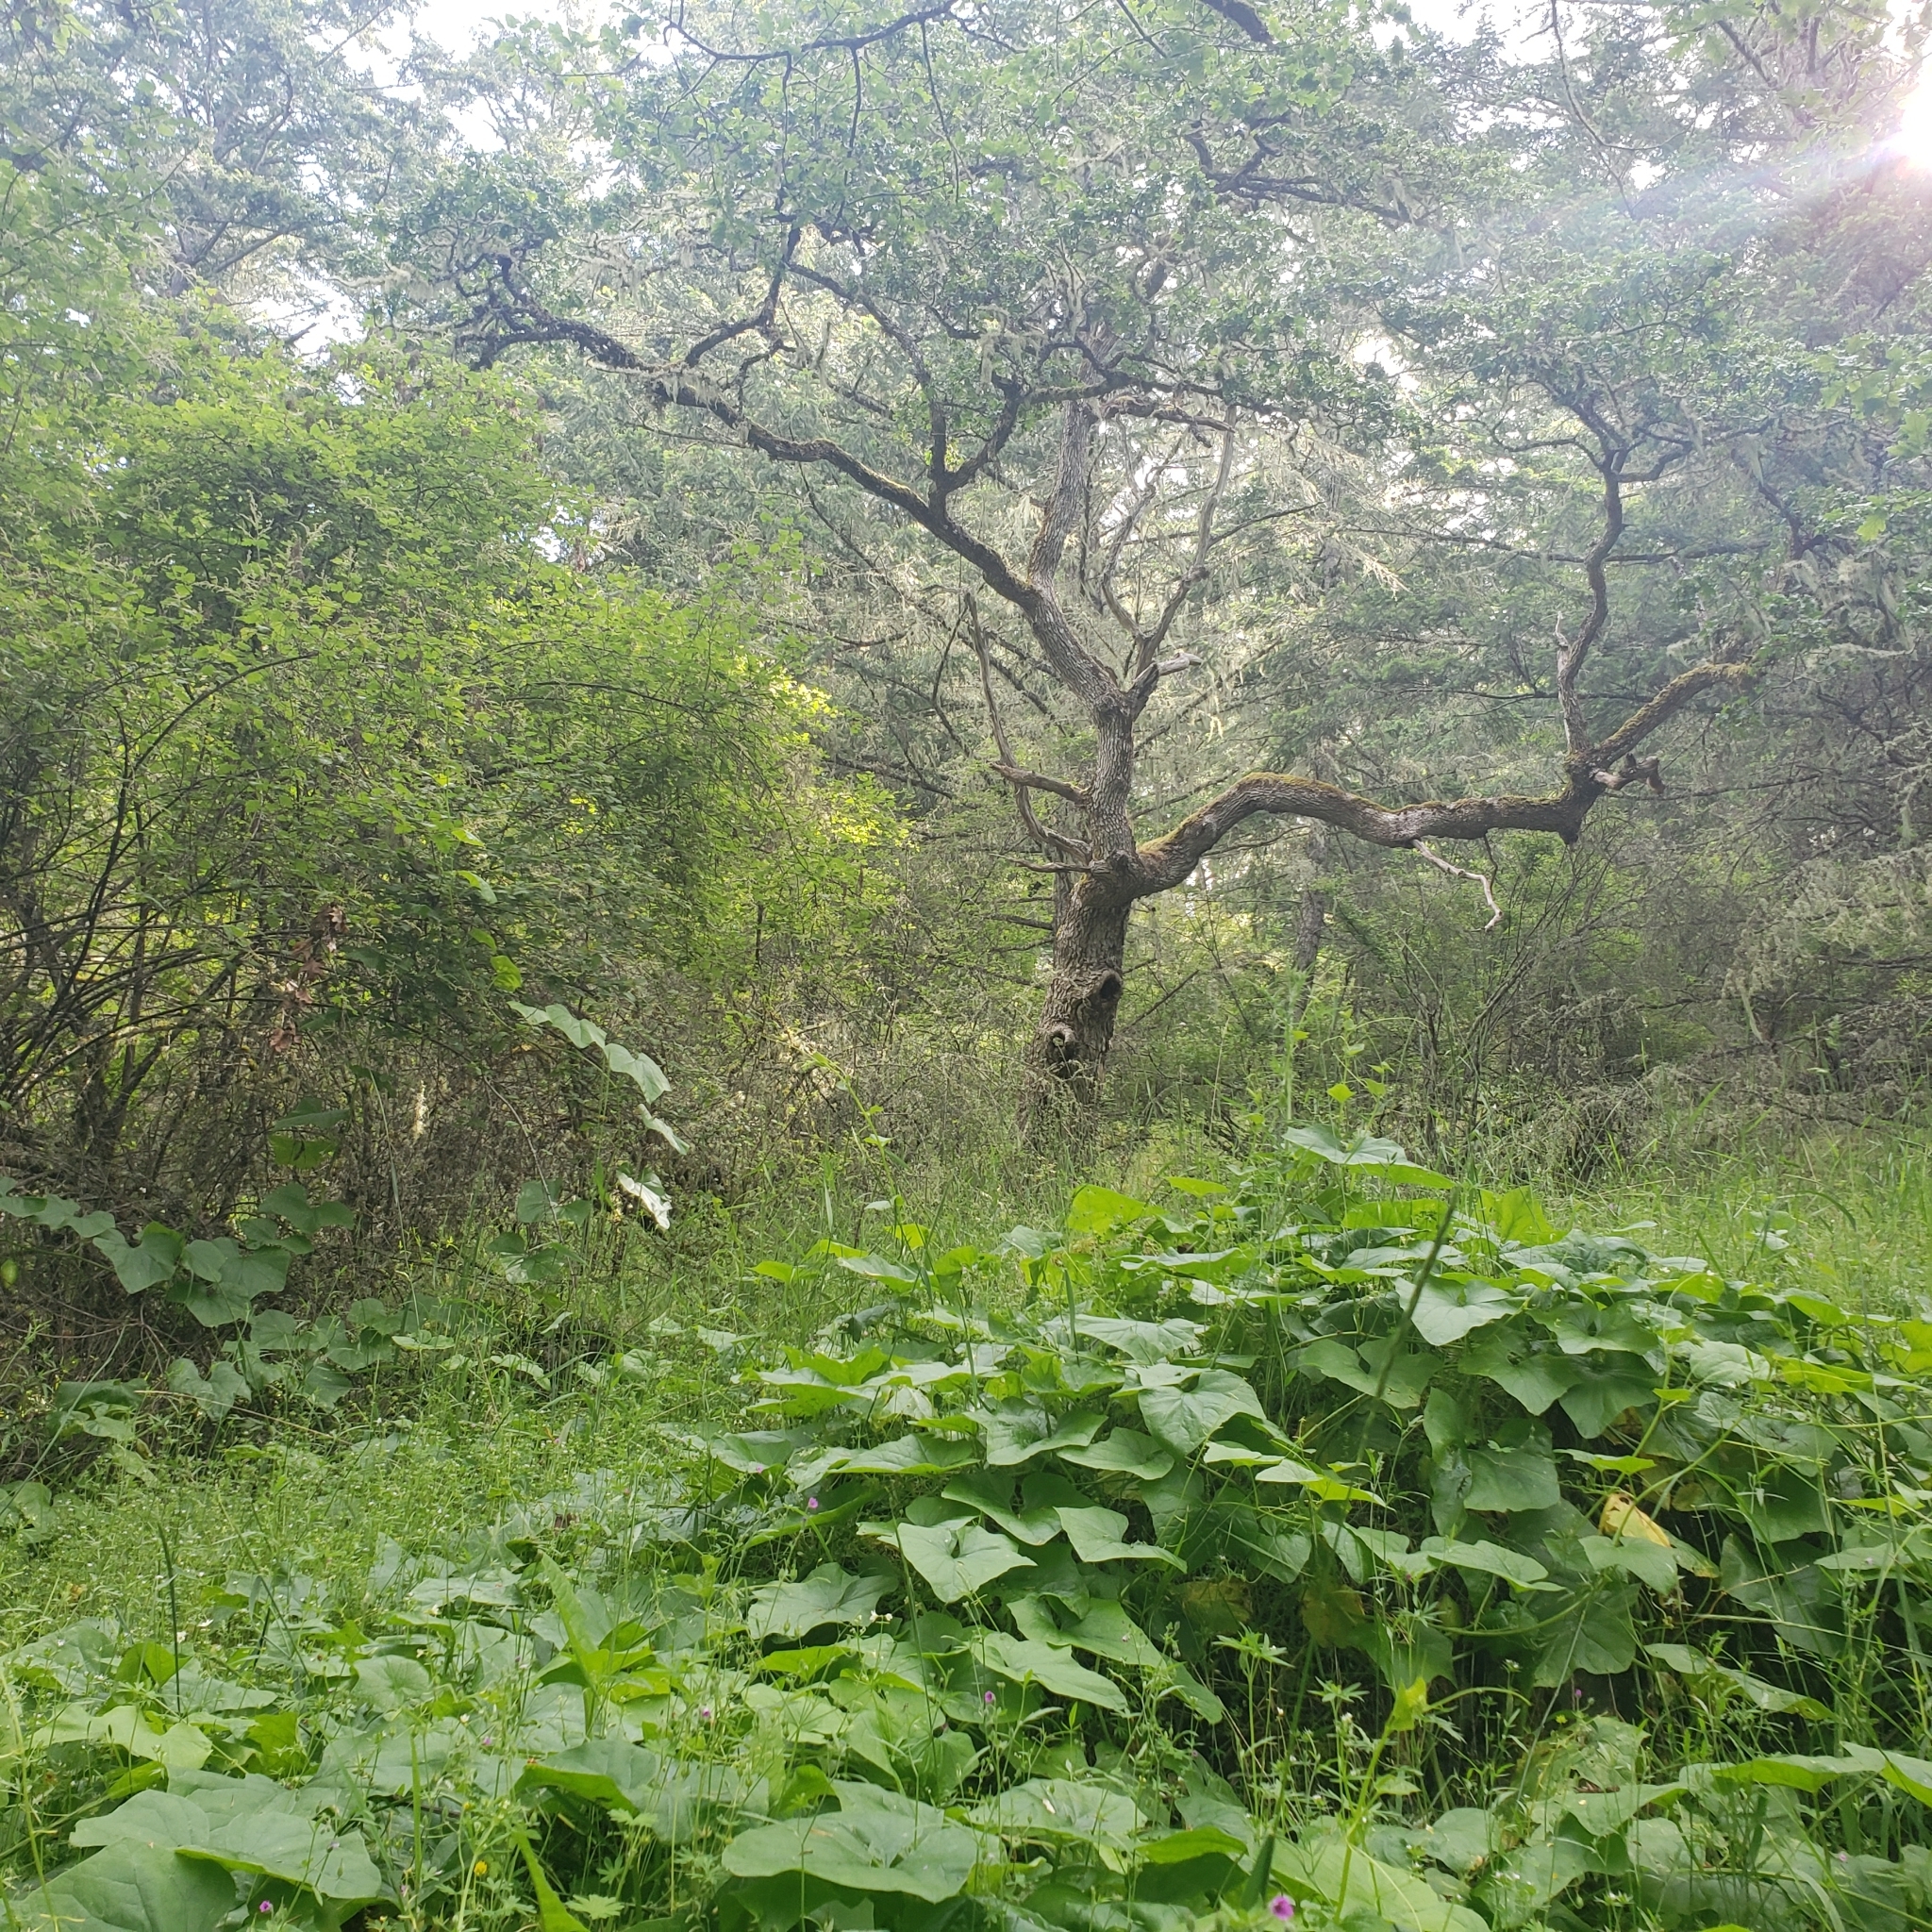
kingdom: Plantae
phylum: Tracheophyta
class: Magnoliopsida
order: Fagales
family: Fagaceae
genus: Quercus
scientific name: Quercus garryana
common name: Garry oak
